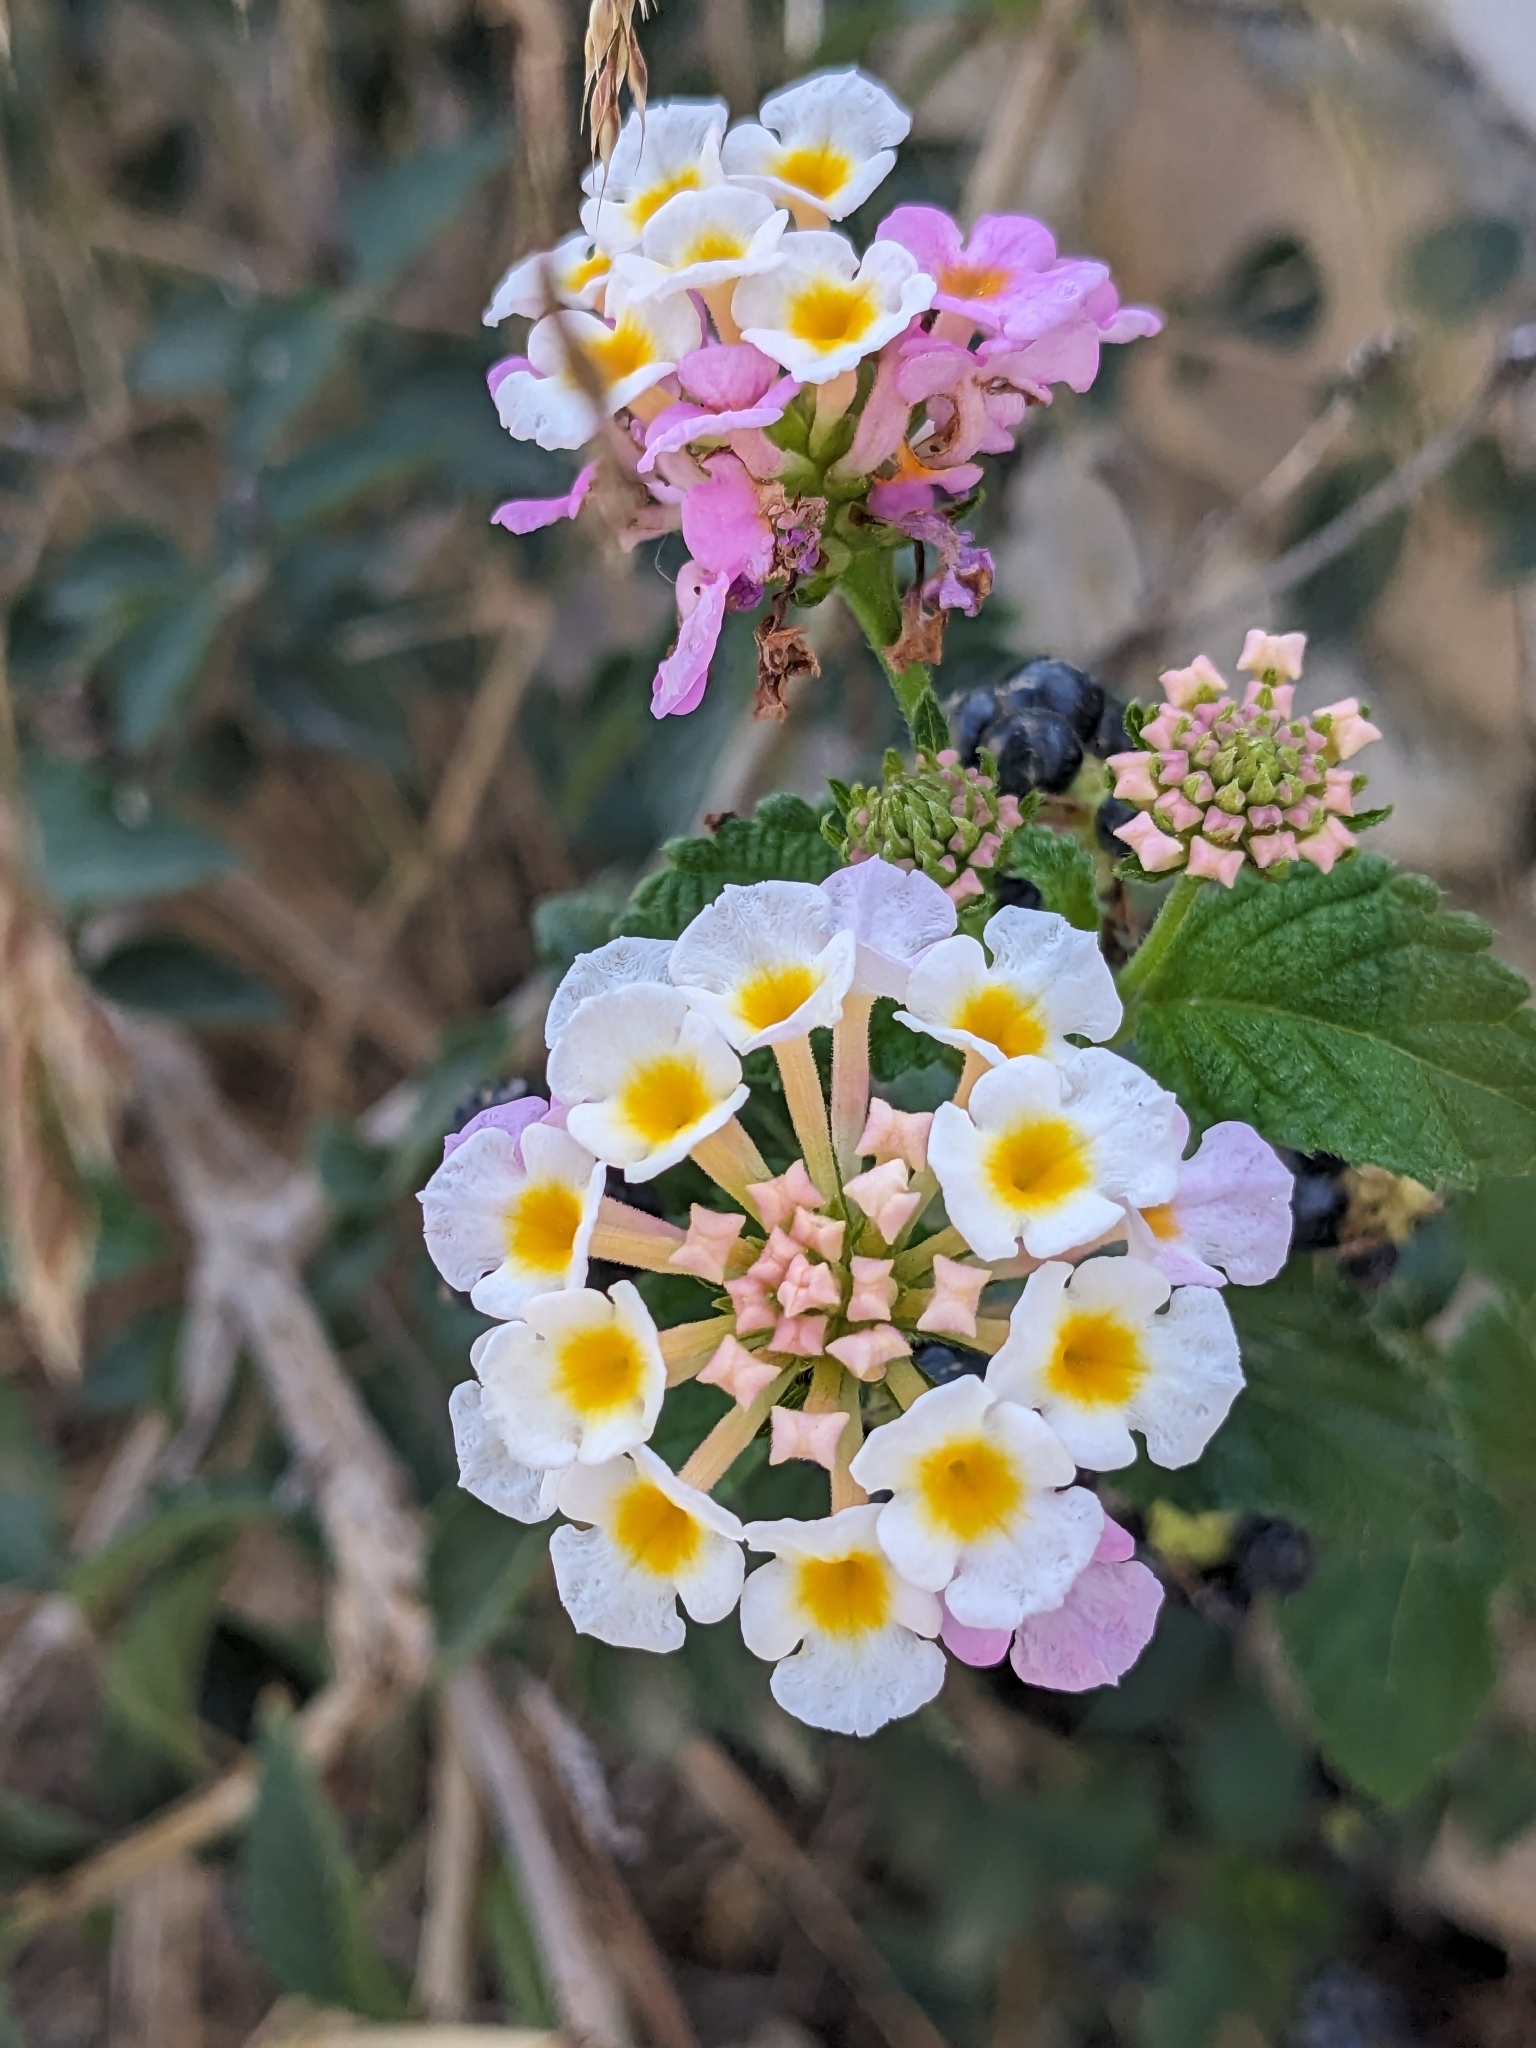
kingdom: Plantae
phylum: Tracheophyta
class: Magnoliopsida
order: Lamiales
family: Verbenaceae
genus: Lantana
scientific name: Lantana camara
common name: Lantana
